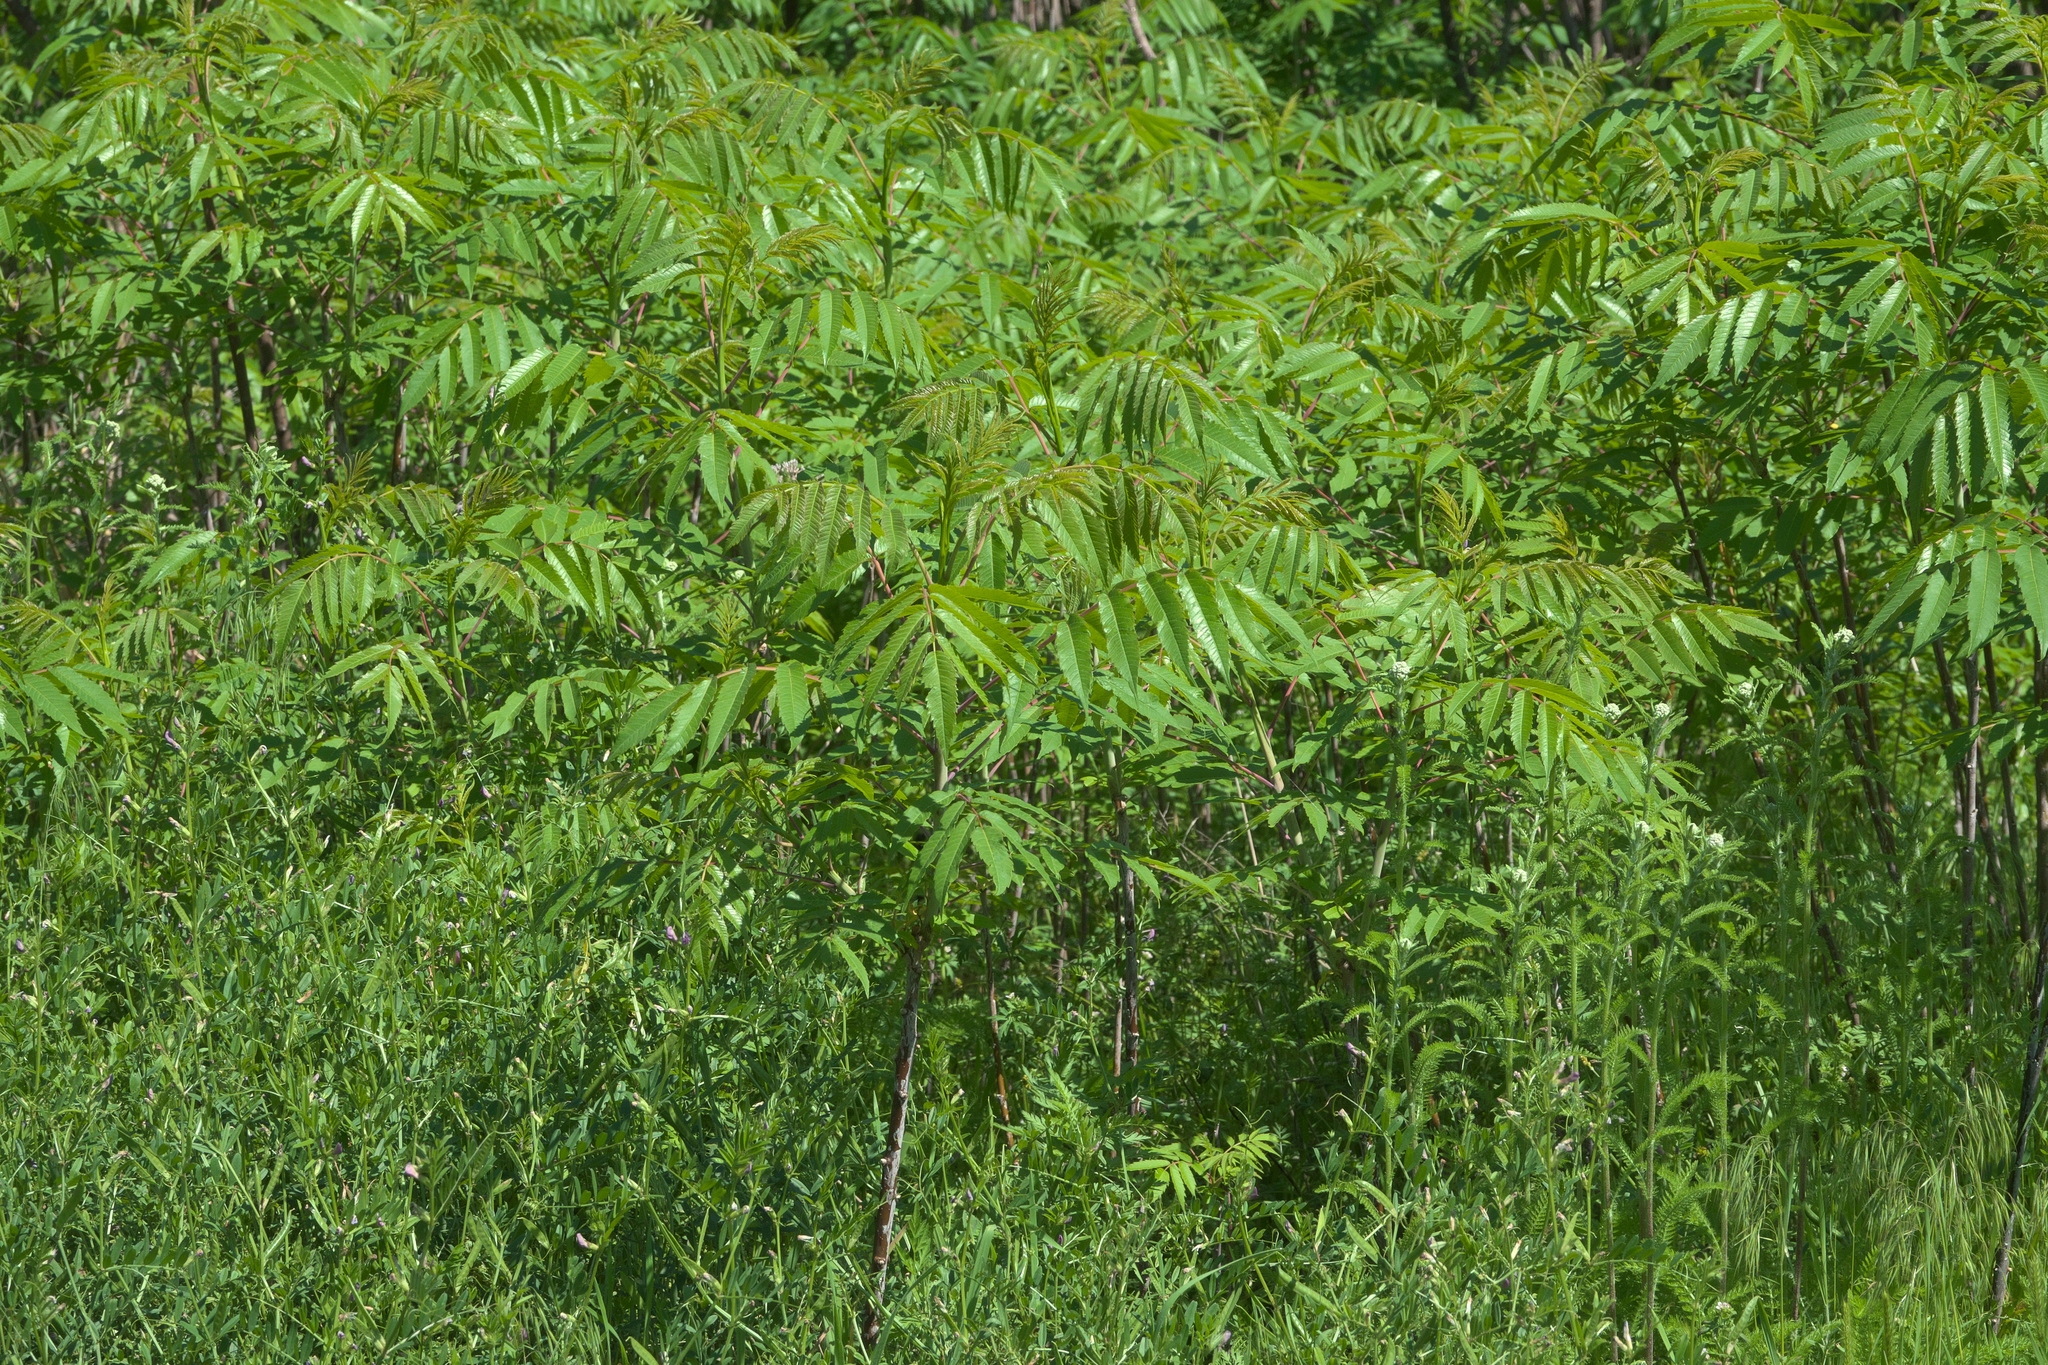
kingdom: Plantae
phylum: Tracheophyta
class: Magnoliopsida
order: Sapindales
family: Anacardiaceae
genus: Rhus
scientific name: Rhus glabra
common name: Scarlet sumac
